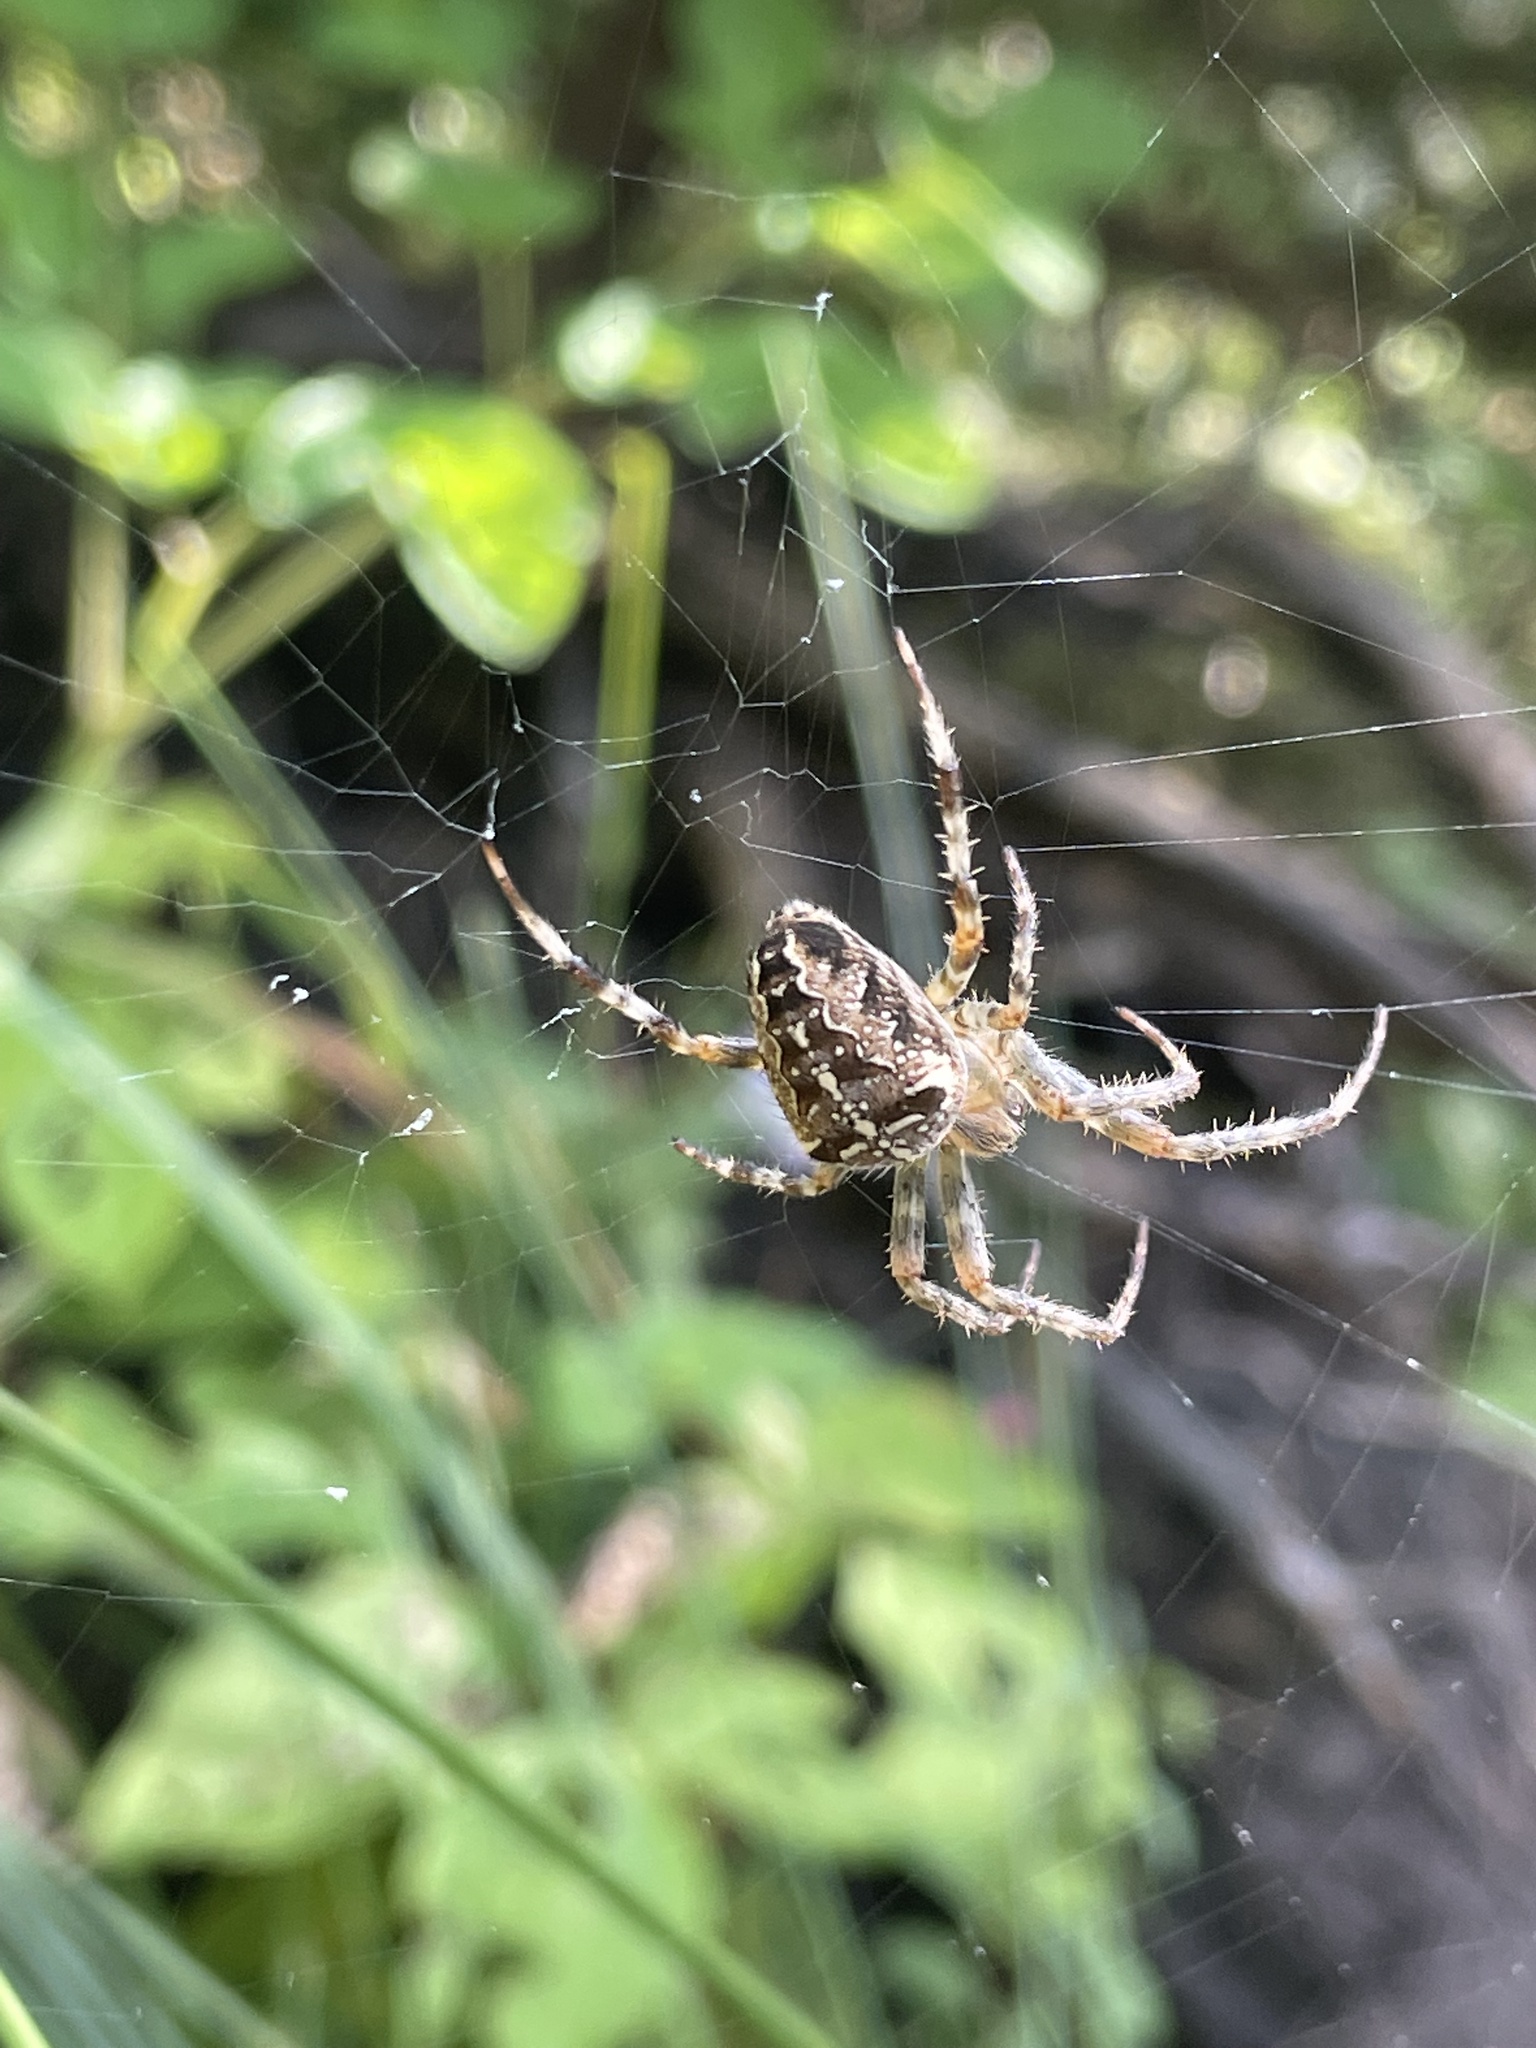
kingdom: Animalia
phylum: Arthropoda
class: Arachnida
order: Araneae
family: Araneidae
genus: Araneus
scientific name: Araneus diadematus
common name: Cross orbweaver
